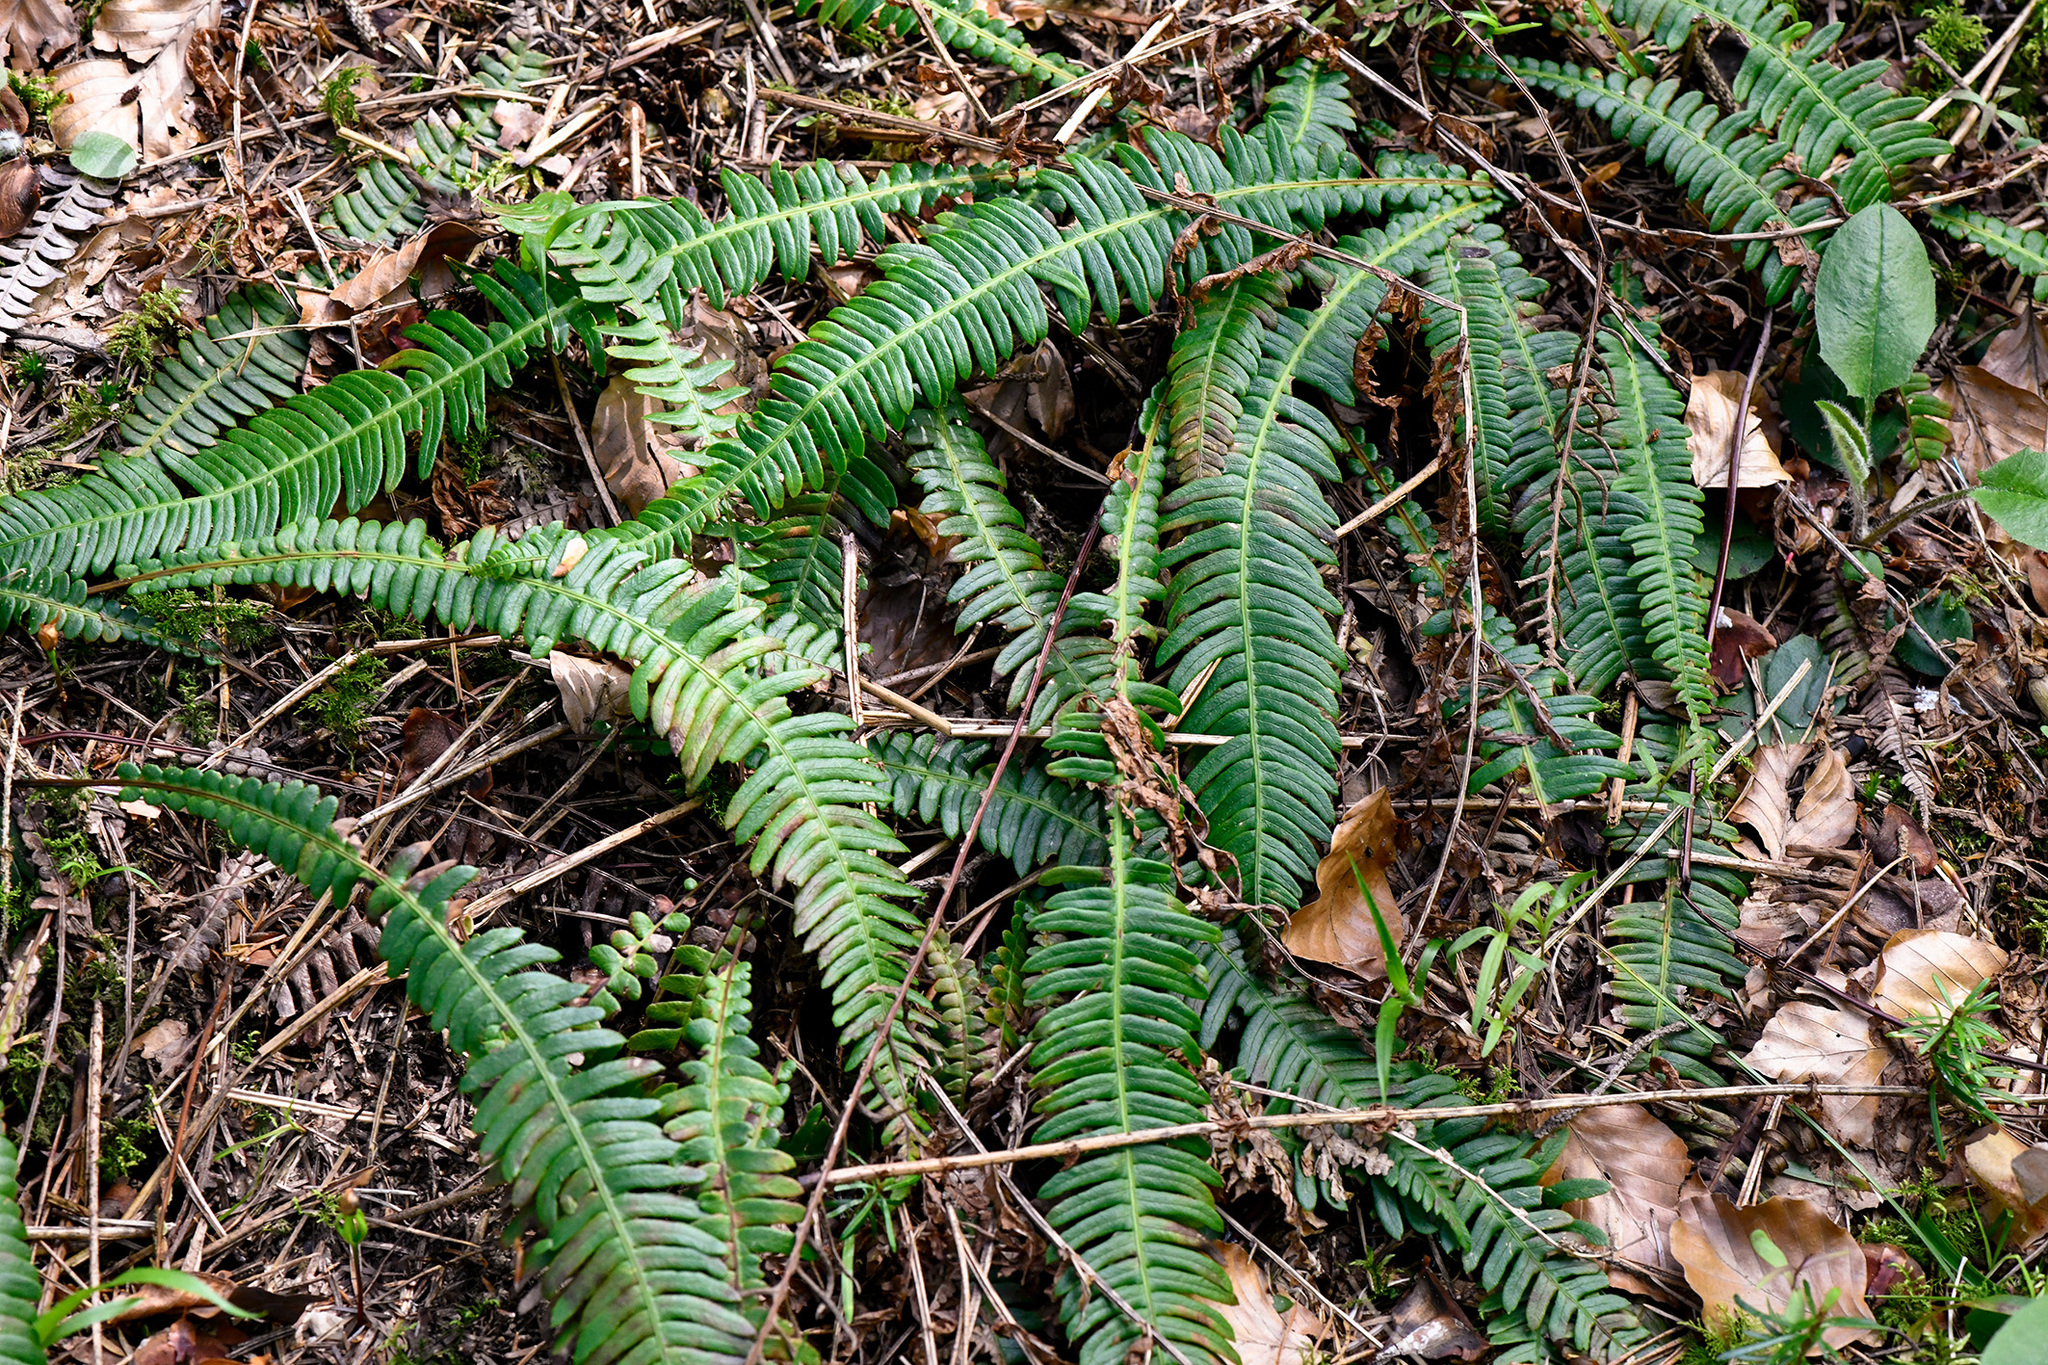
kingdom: Plantae
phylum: Tracheophyta
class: Polypodiopsida
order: Polypodiales
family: Blechnaceae
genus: Struthiopteris
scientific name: Struthiopteris spicant
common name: Deer fern
